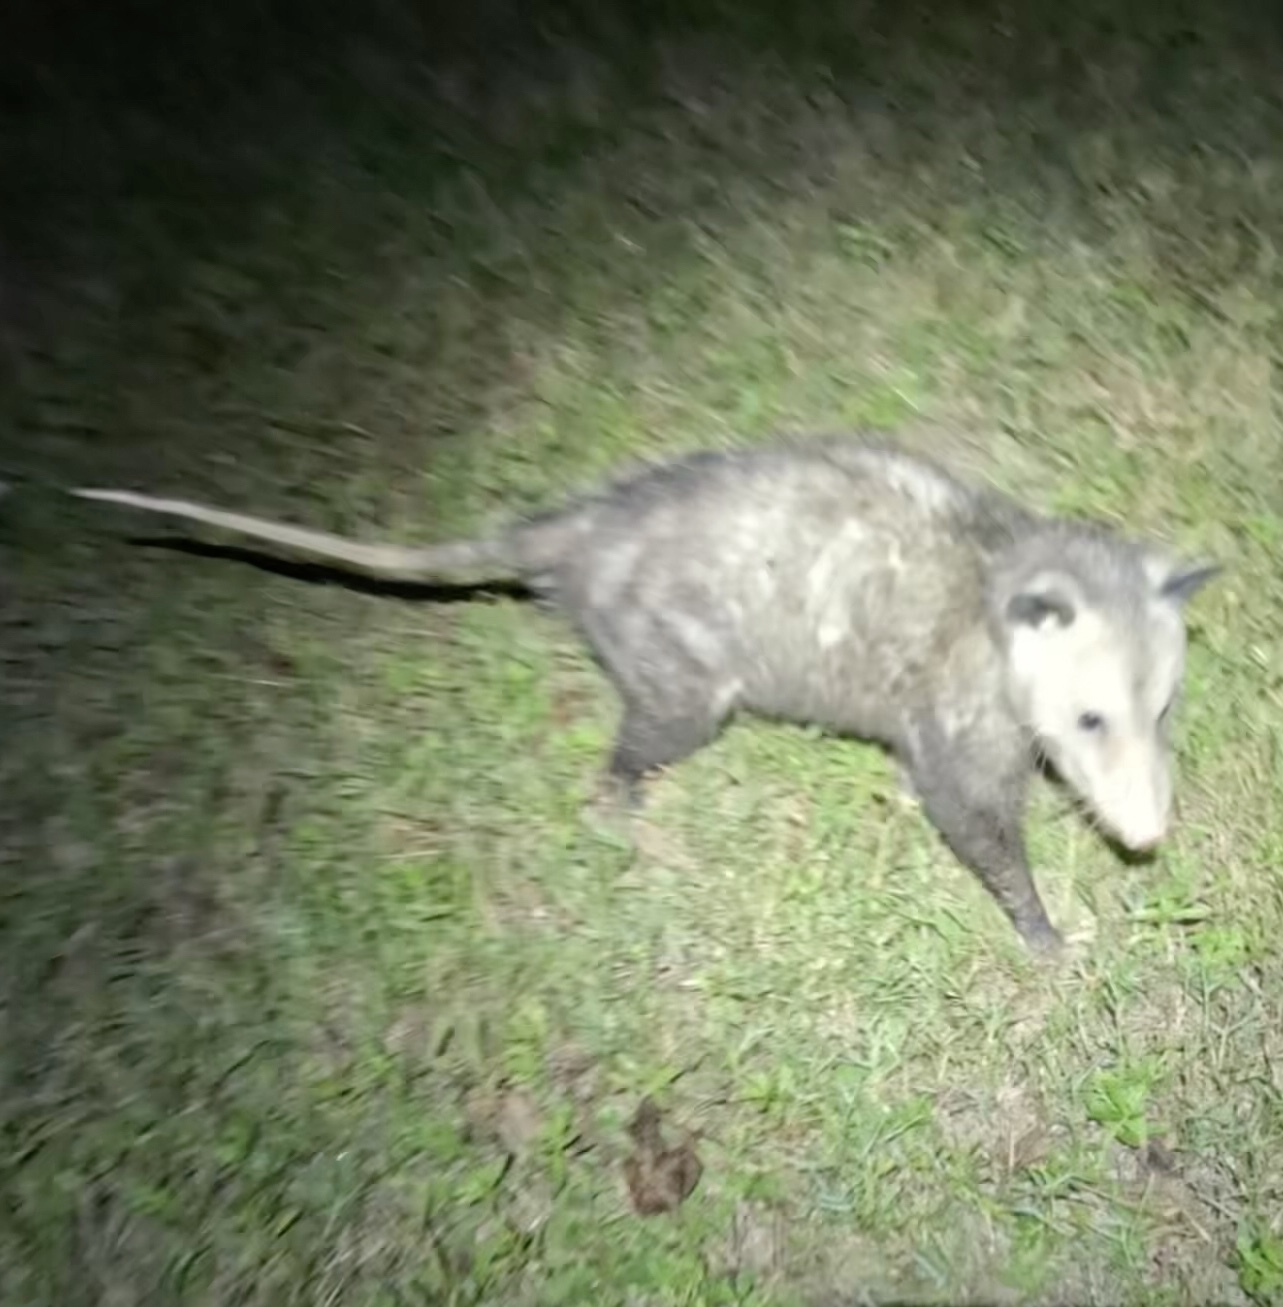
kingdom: Animalia
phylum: Chordata
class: Mammalia
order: Didelphimorphia
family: Didelphidae
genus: Didelphis
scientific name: Didelphis virginiana
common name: Virginia opossum
